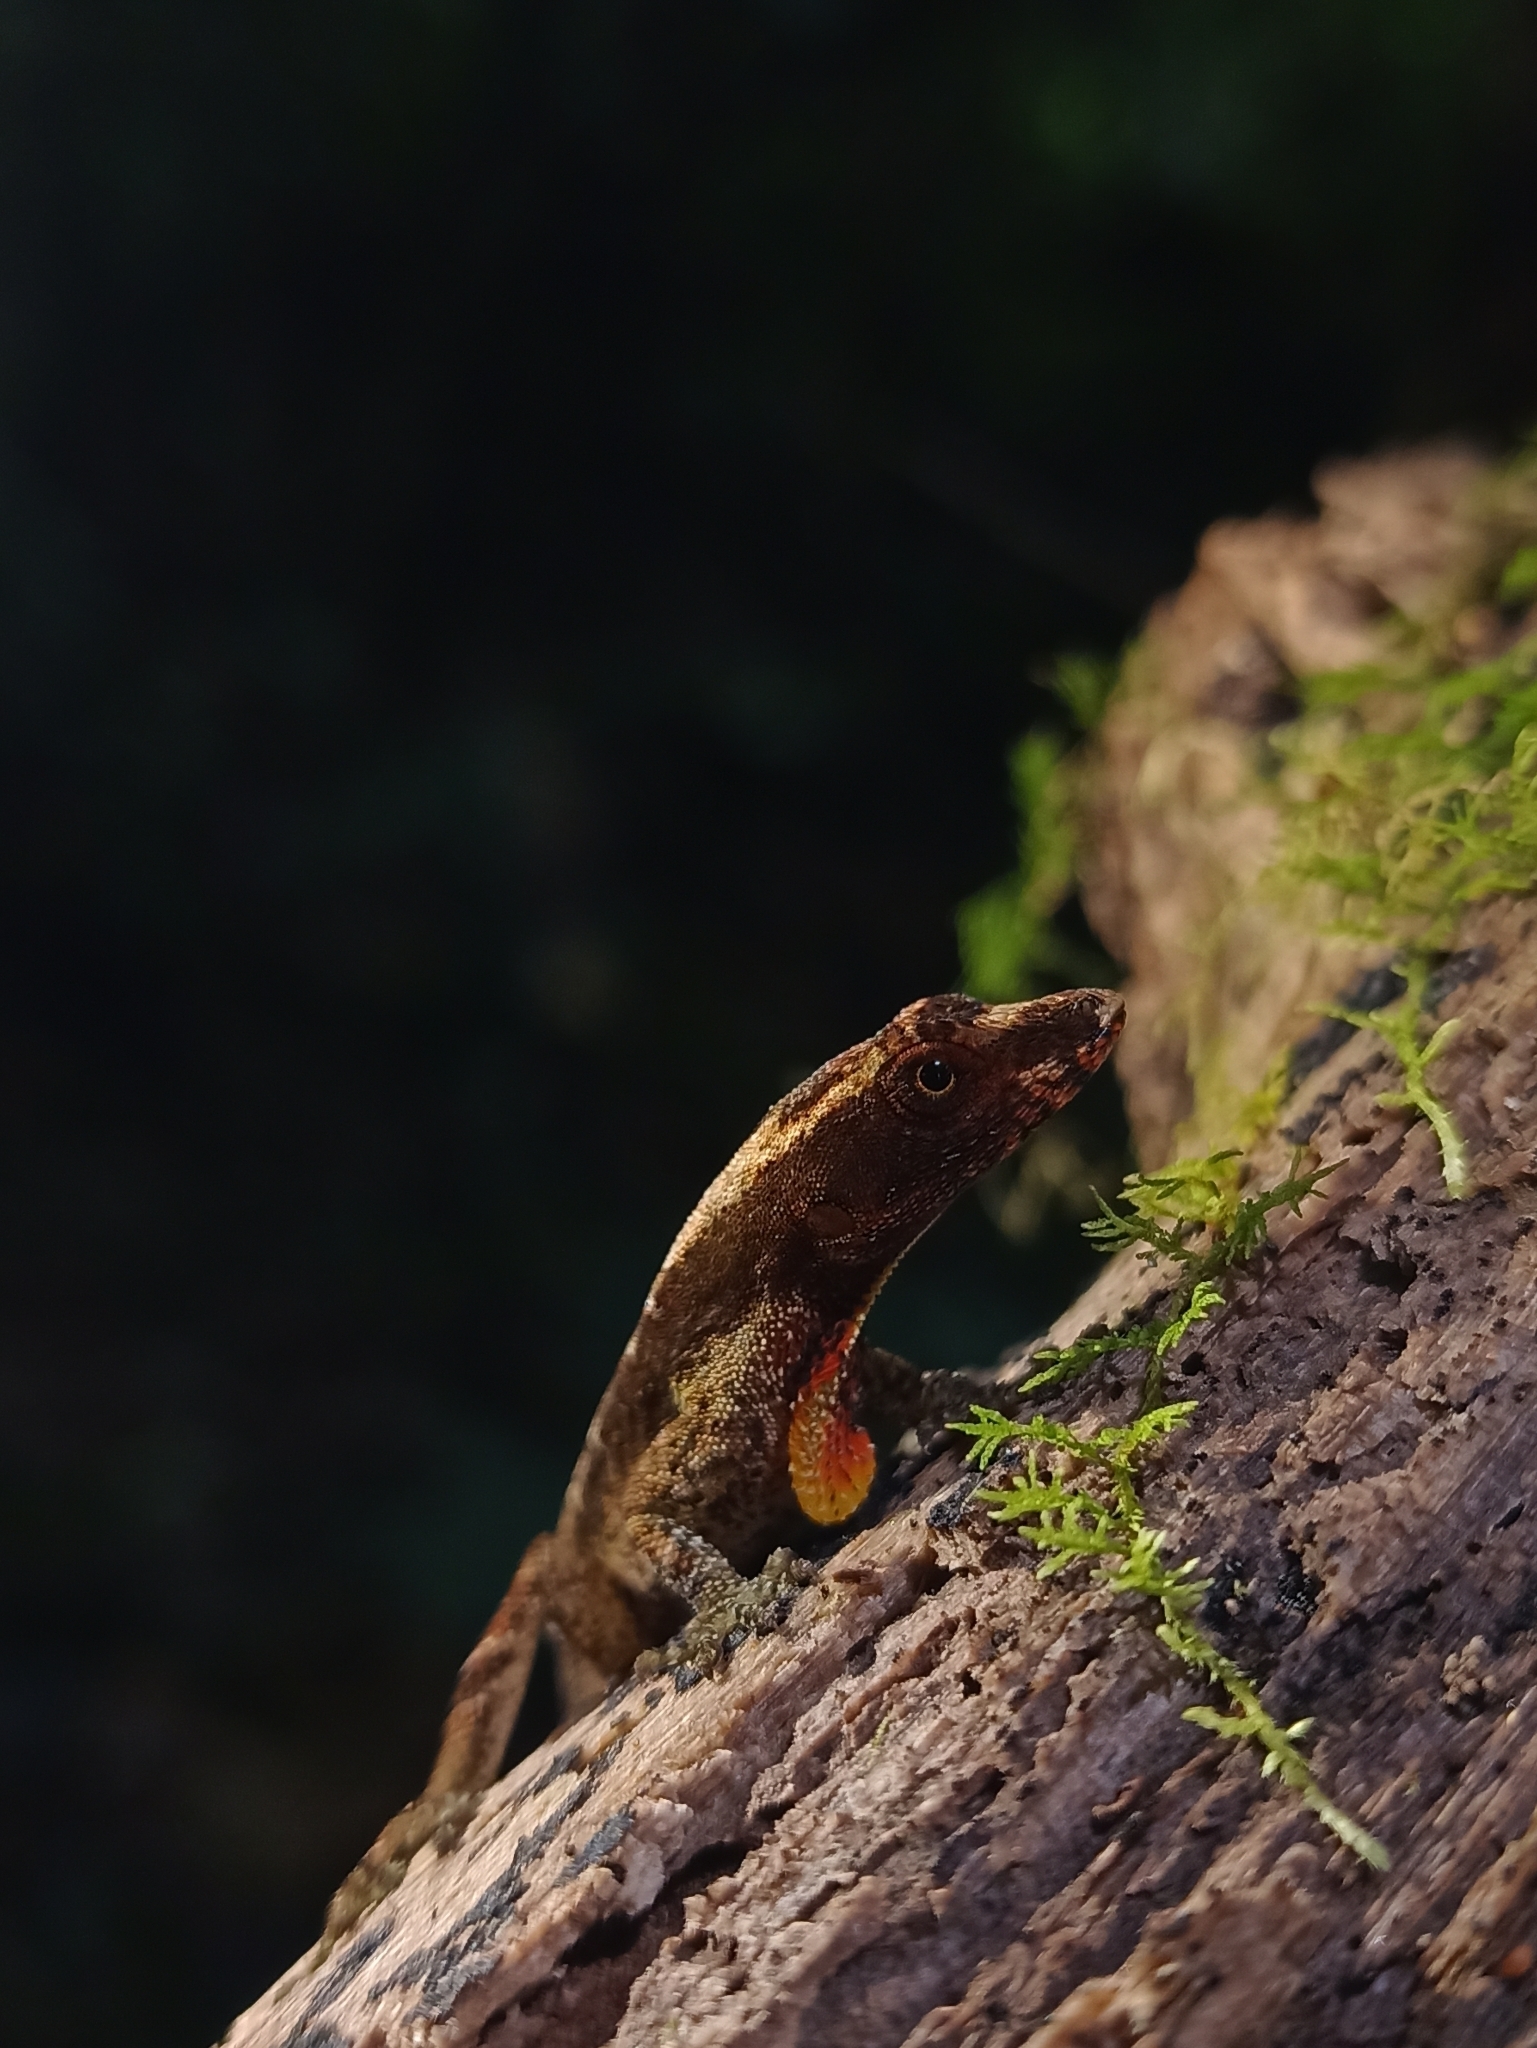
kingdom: Animalia
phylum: Chordata
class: Squamata
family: Dactyloidae
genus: Anolis
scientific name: Anolis humilis
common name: Humble anole
